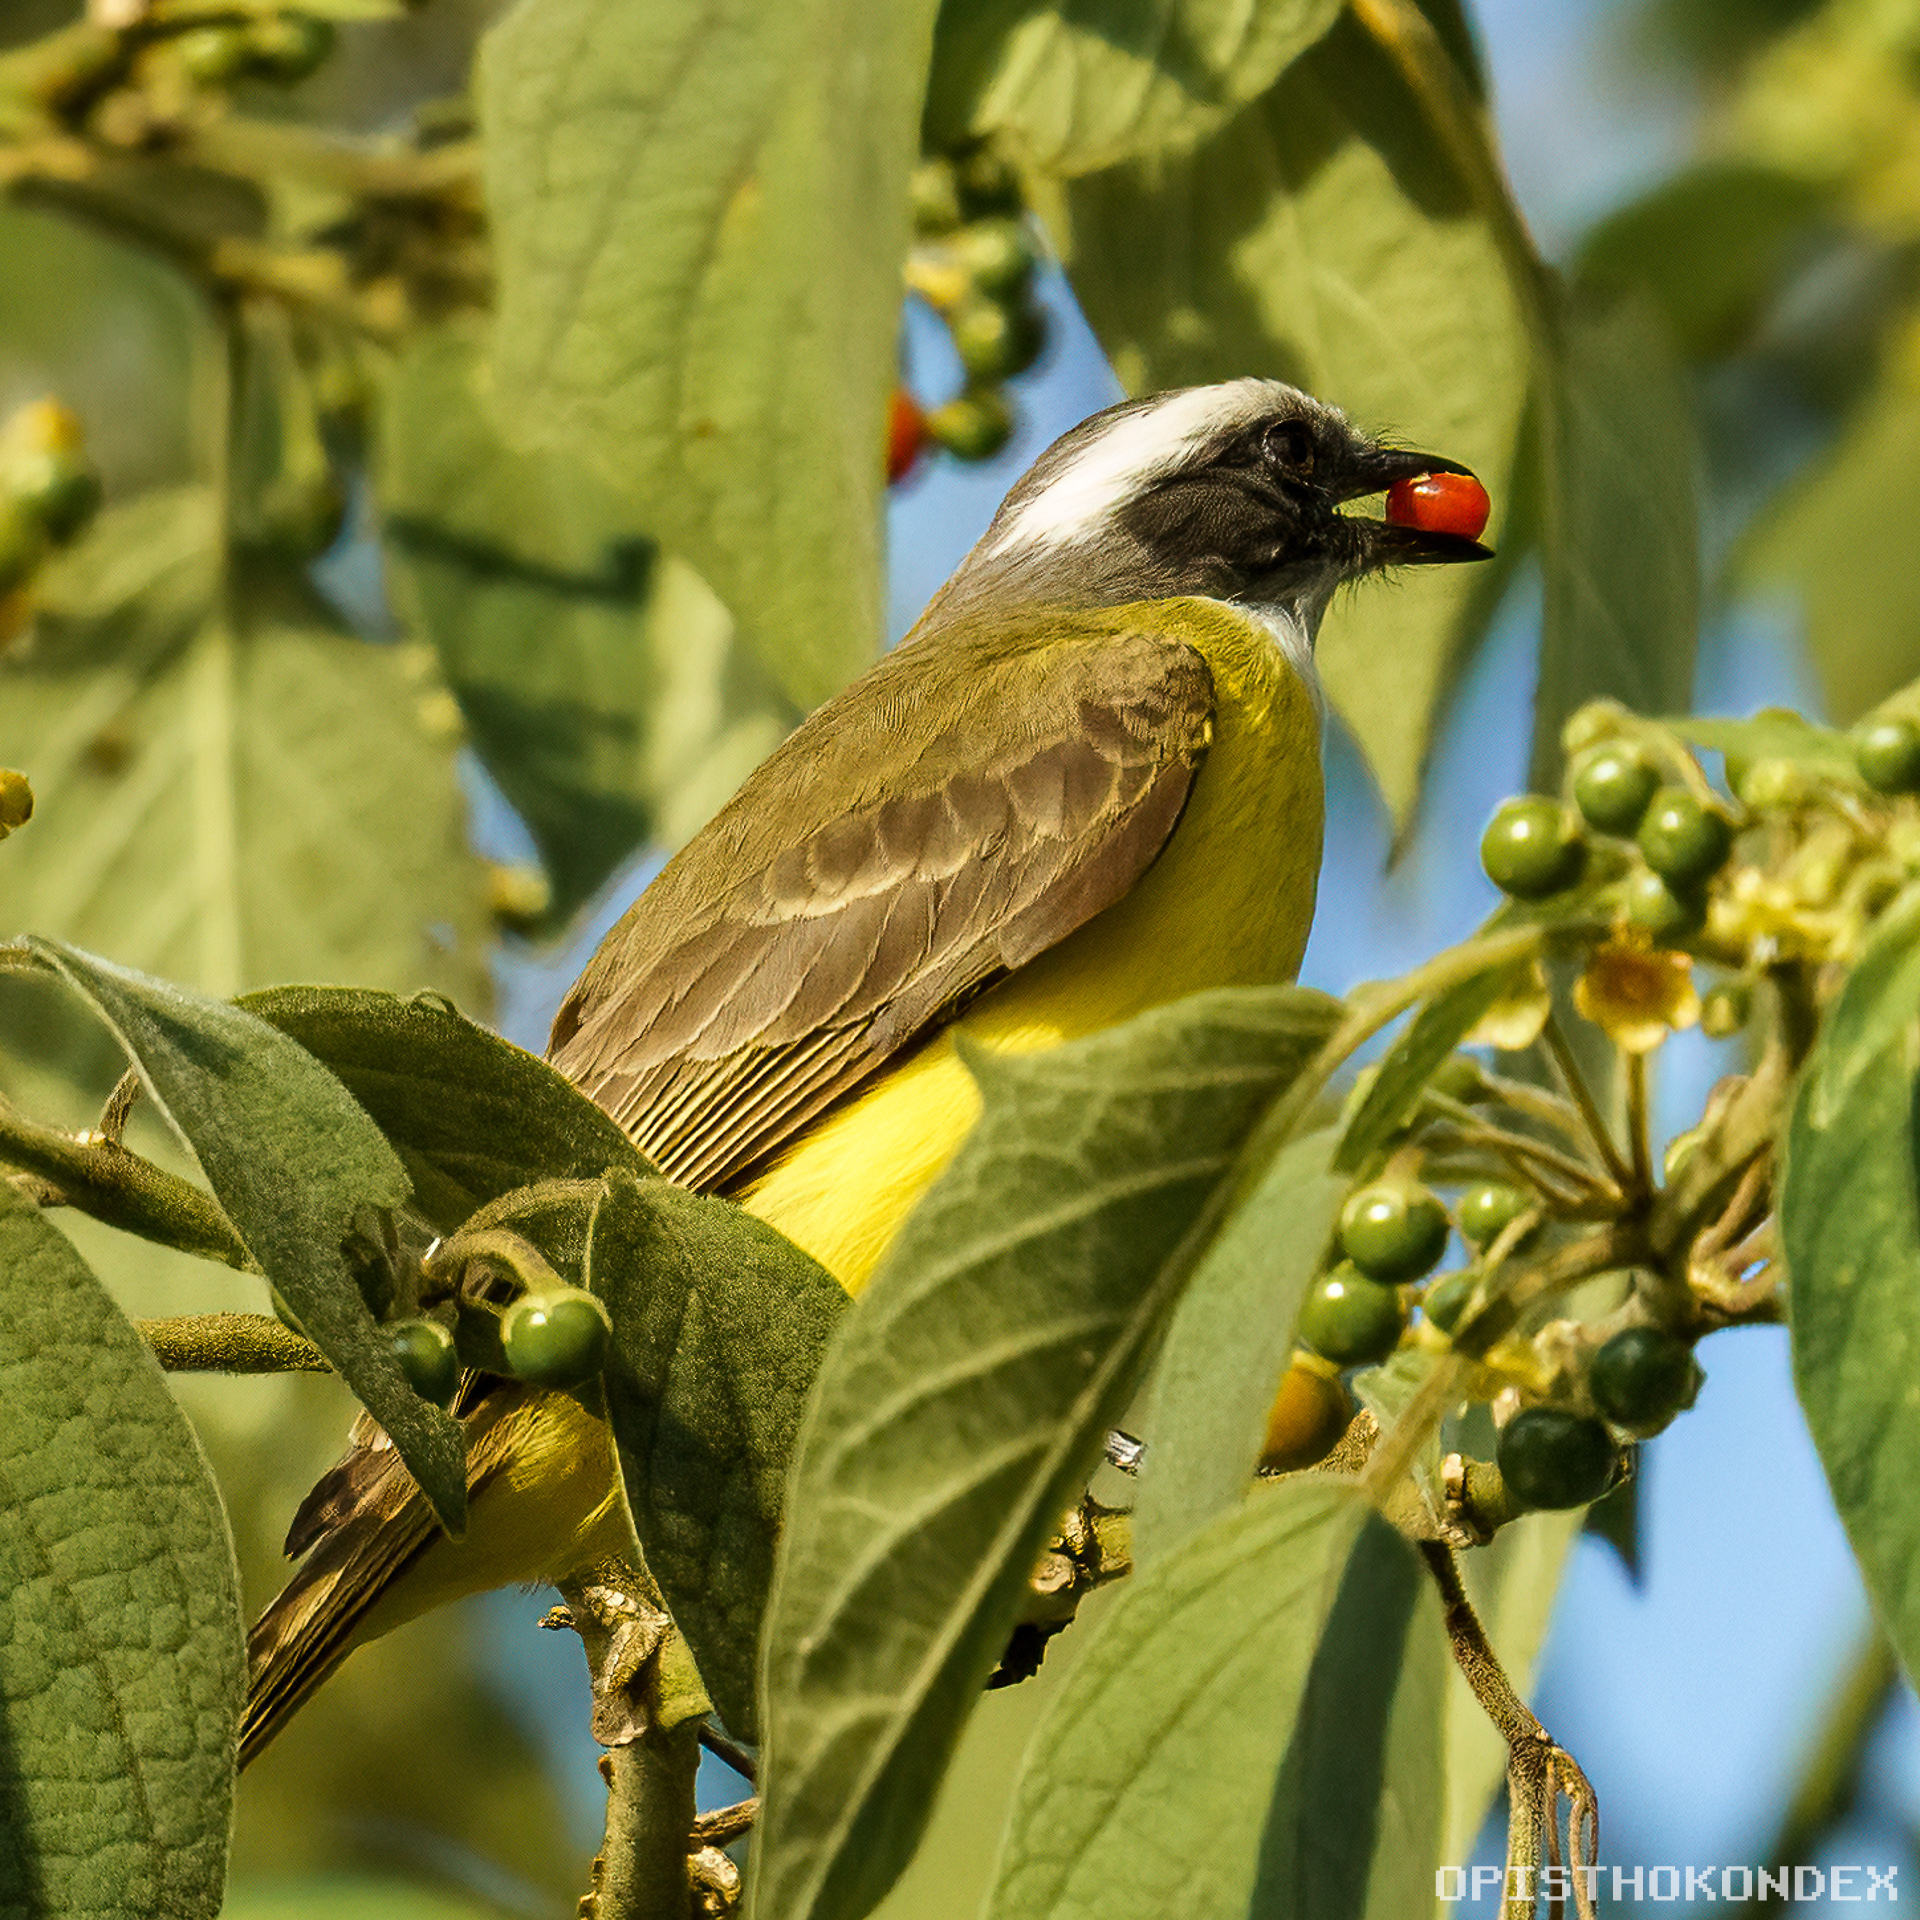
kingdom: Animalia
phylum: Chordata
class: Aves
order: Passeriformes
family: Tyrannidae
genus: Myiozetetes
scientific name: Myiozetetes similis
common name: Social flycatcher
